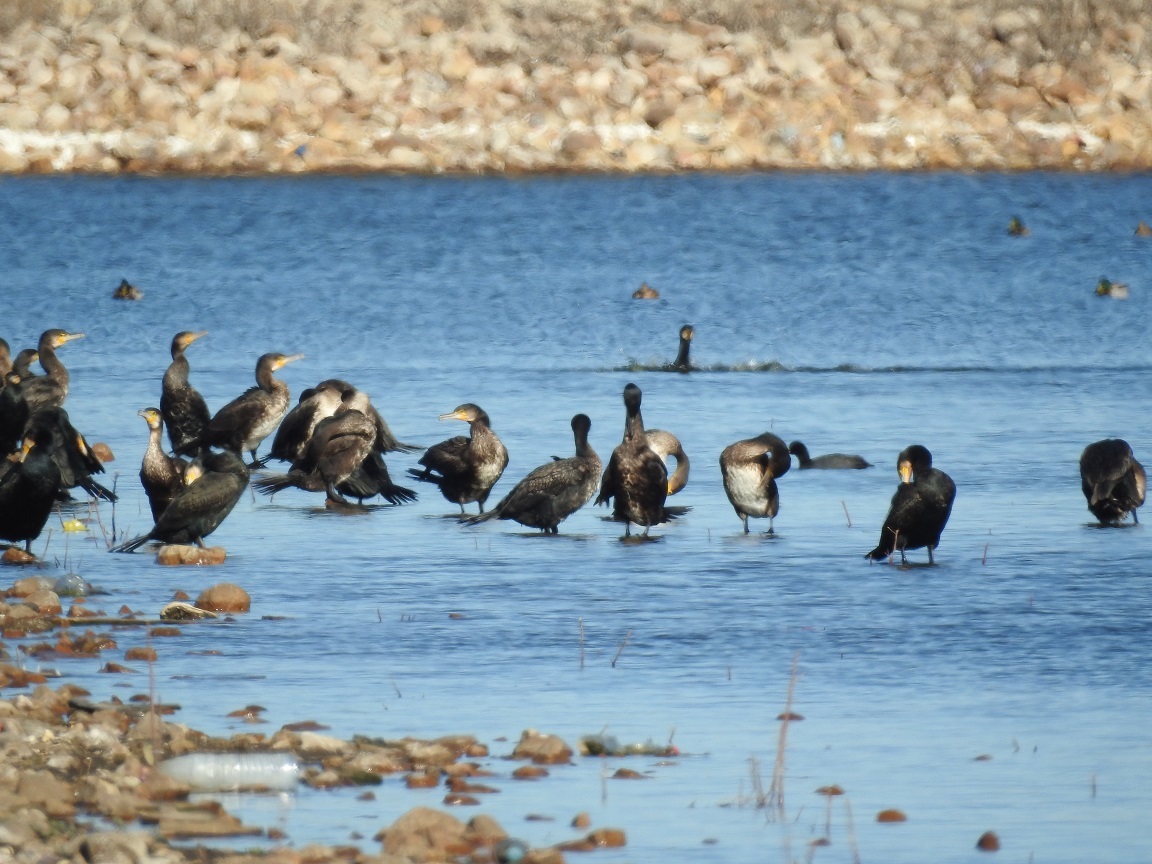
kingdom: Animalia
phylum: Chordata
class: Aves
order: Suliformes
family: Phalacrocoracidae
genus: Phalacrocorax
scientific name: Phalacrocorax carbo
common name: Great cormorant
